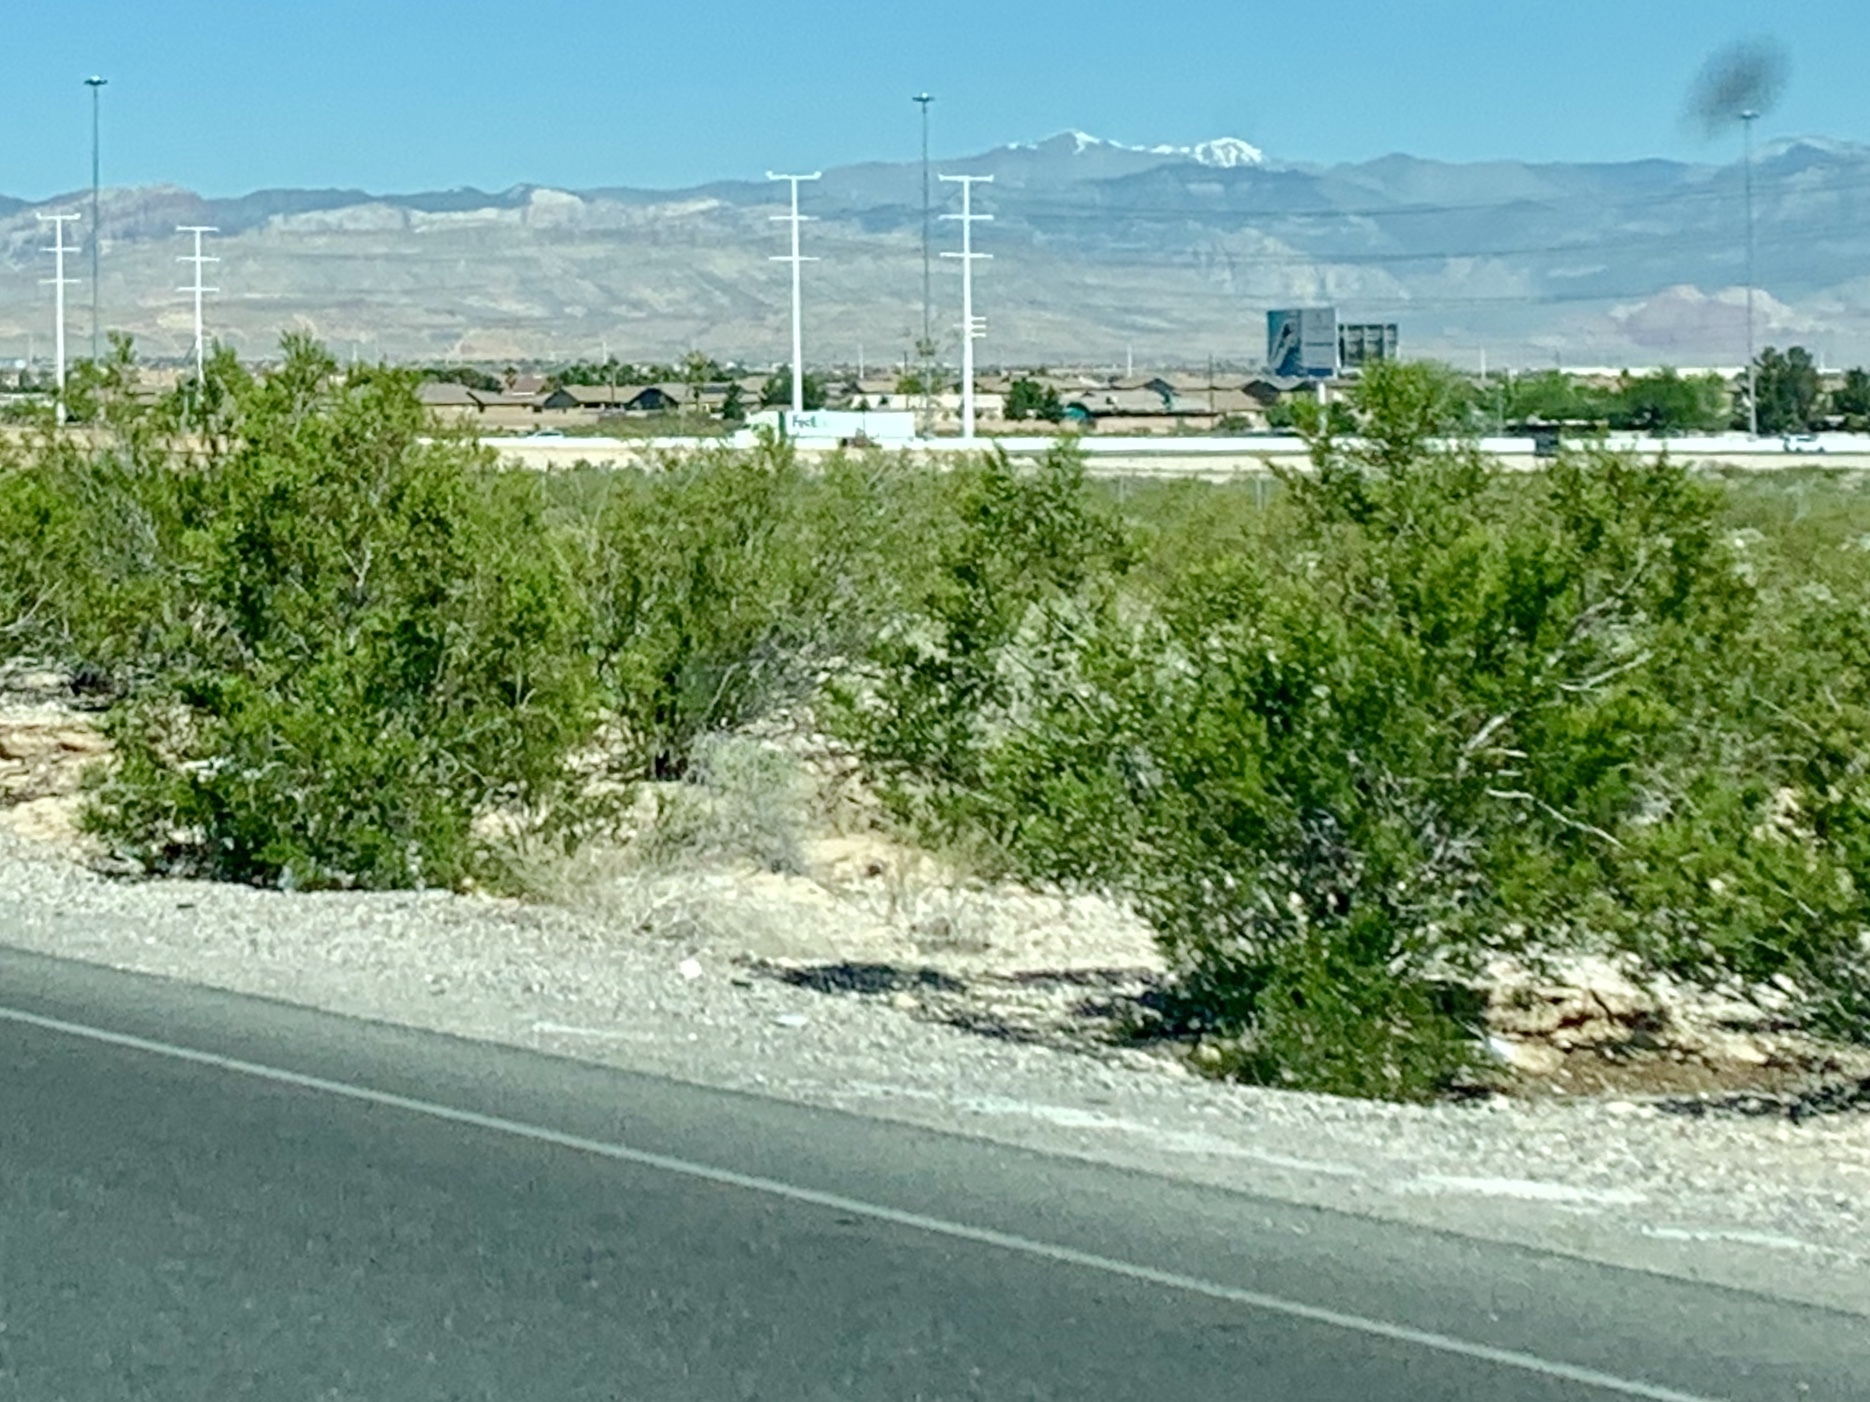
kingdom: Plantae
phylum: Tracheophyta
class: Magnoliopsida
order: Zygophyllales
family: Zygophyllaceae
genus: Larrea
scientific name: Larrea tridentata
